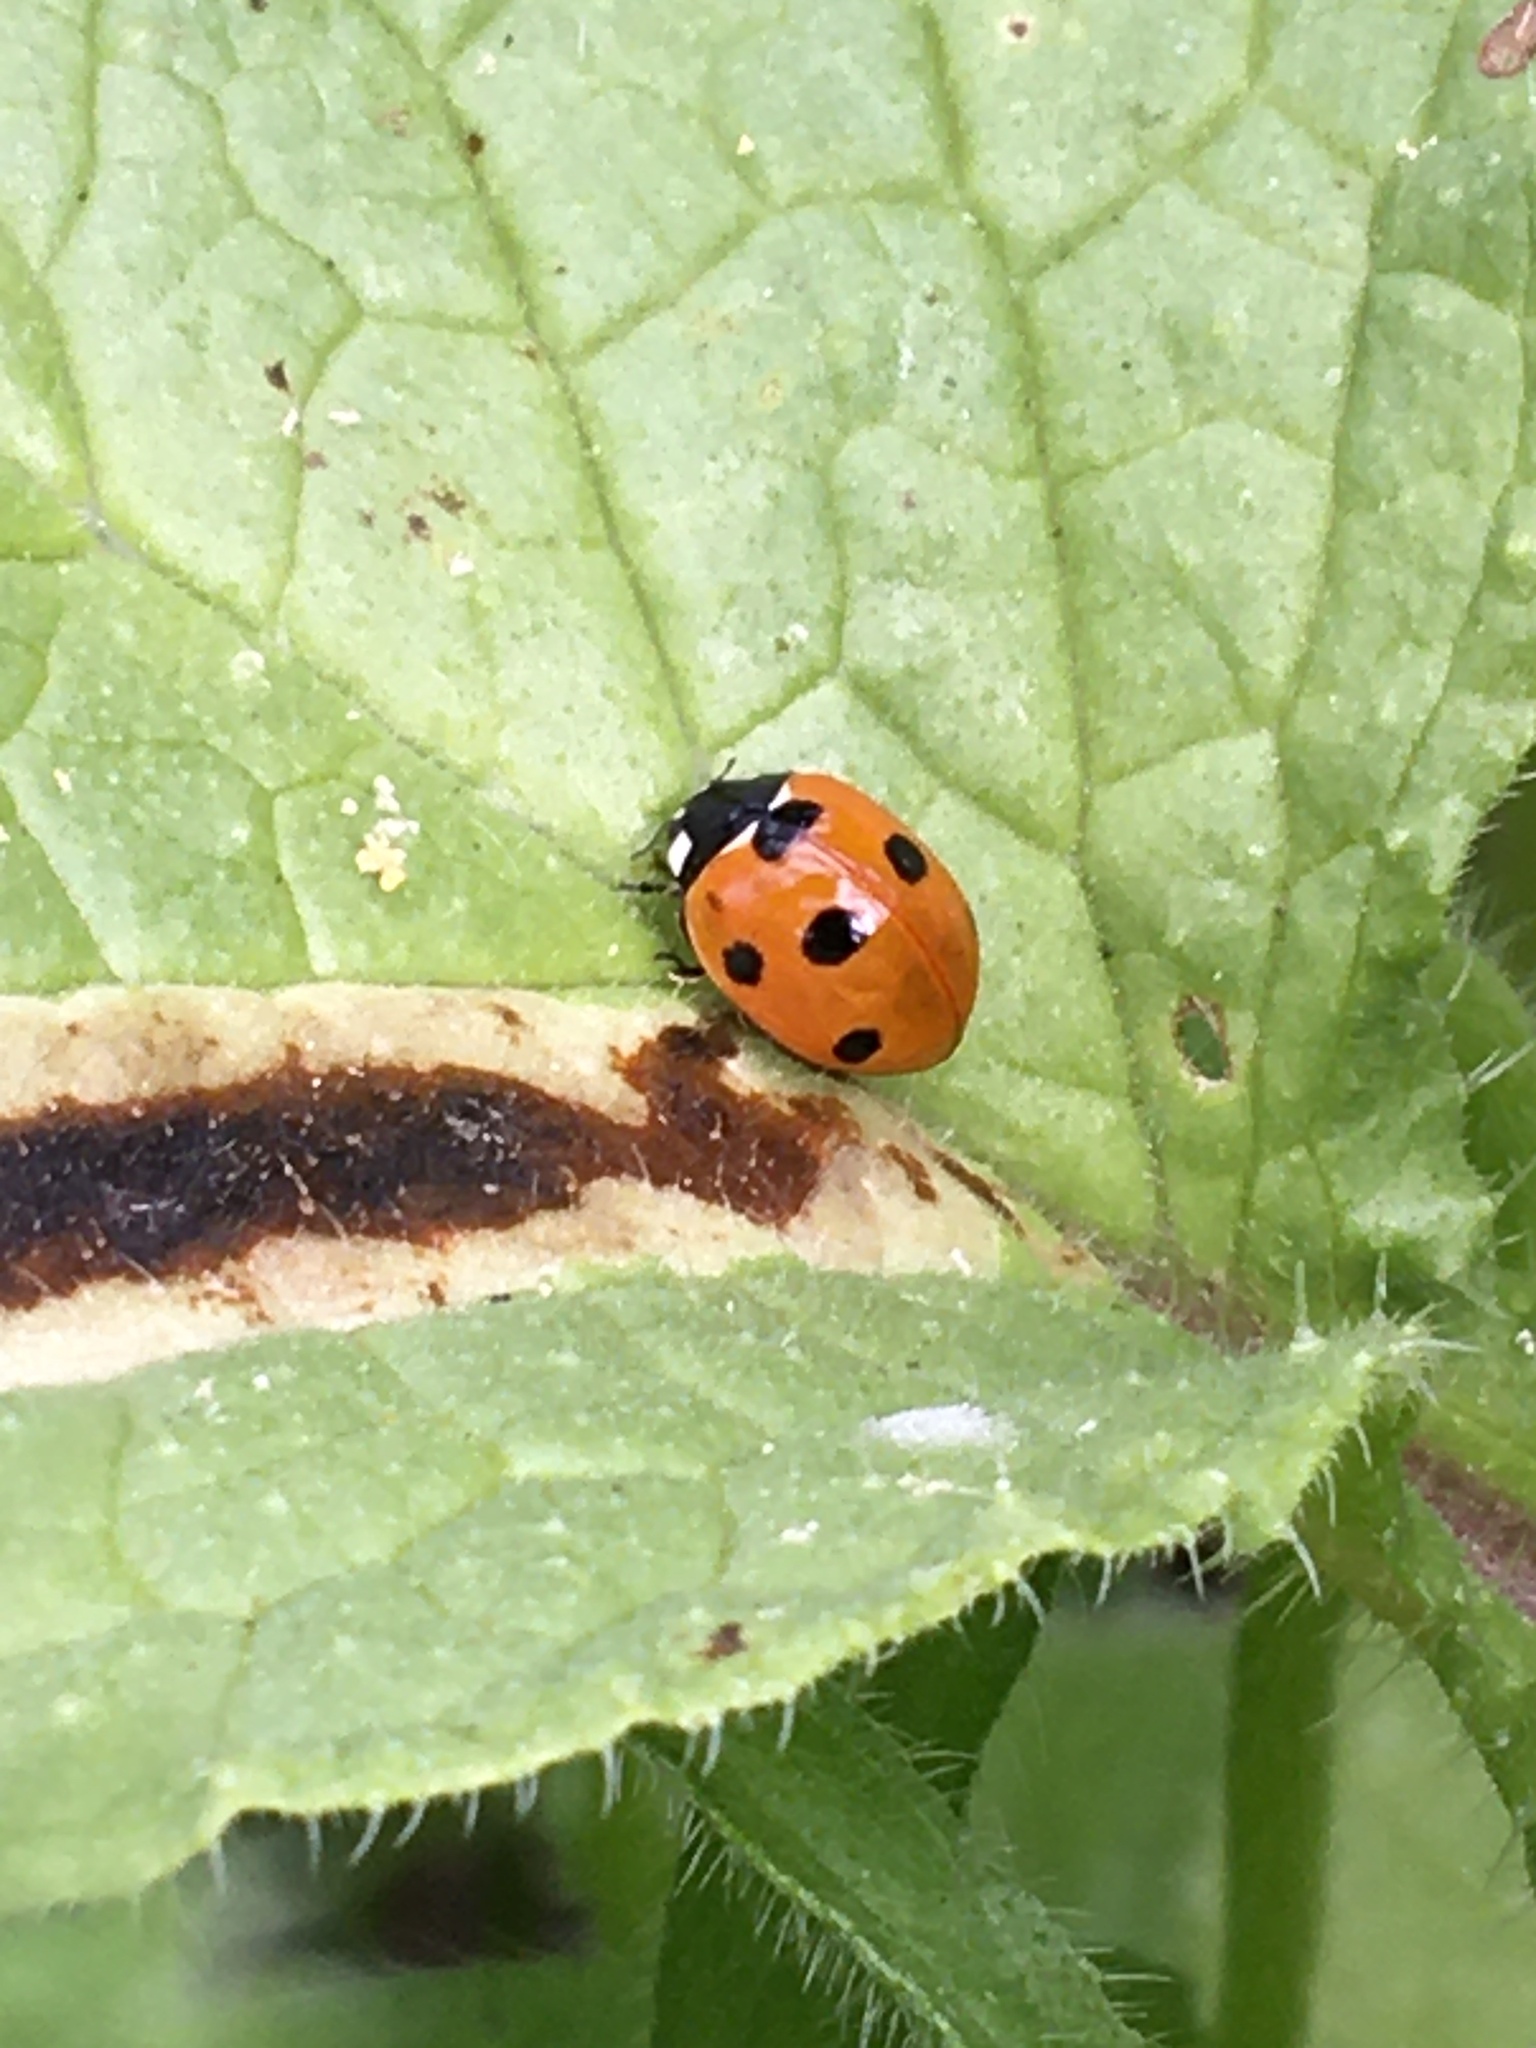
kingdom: Animalia
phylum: Arthropoda
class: Insecta
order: Coleoptera
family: Coccinellidae
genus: Coccinella
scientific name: Coccinella septempunctata
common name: Sevenspotted lady beetle
